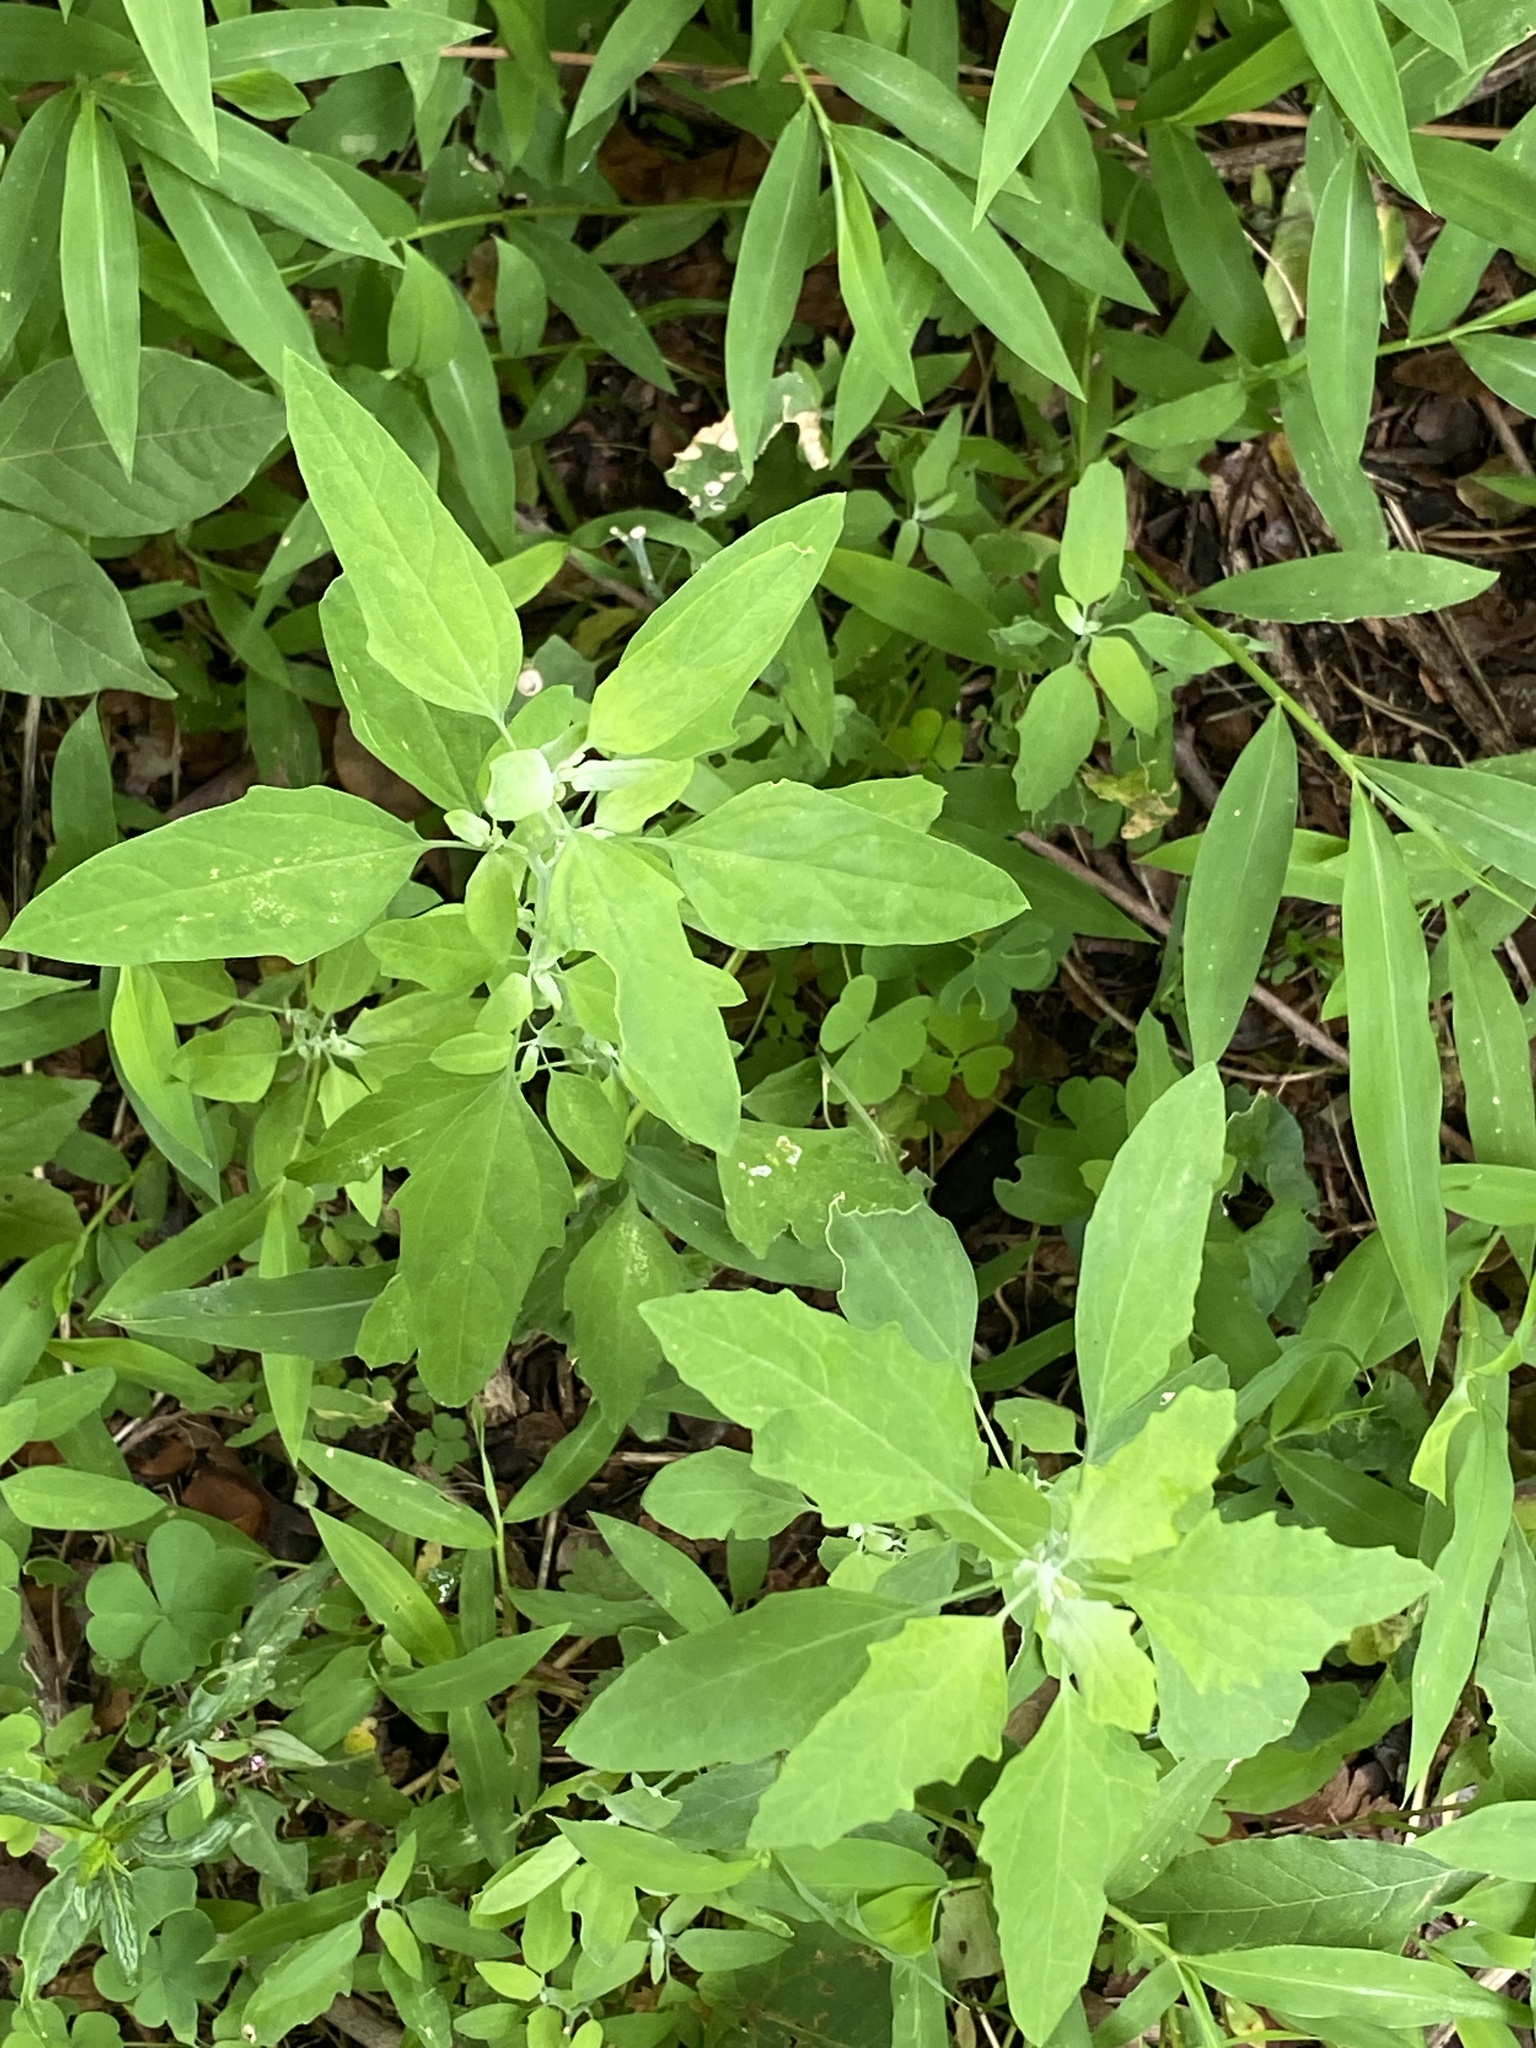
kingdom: Plantae
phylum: Tracheophyta
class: Magnoliopsida
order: Caryophyllales
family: Amaranthaceae
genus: Chenopodium
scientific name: Chenopodium album
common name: Fat-hen
